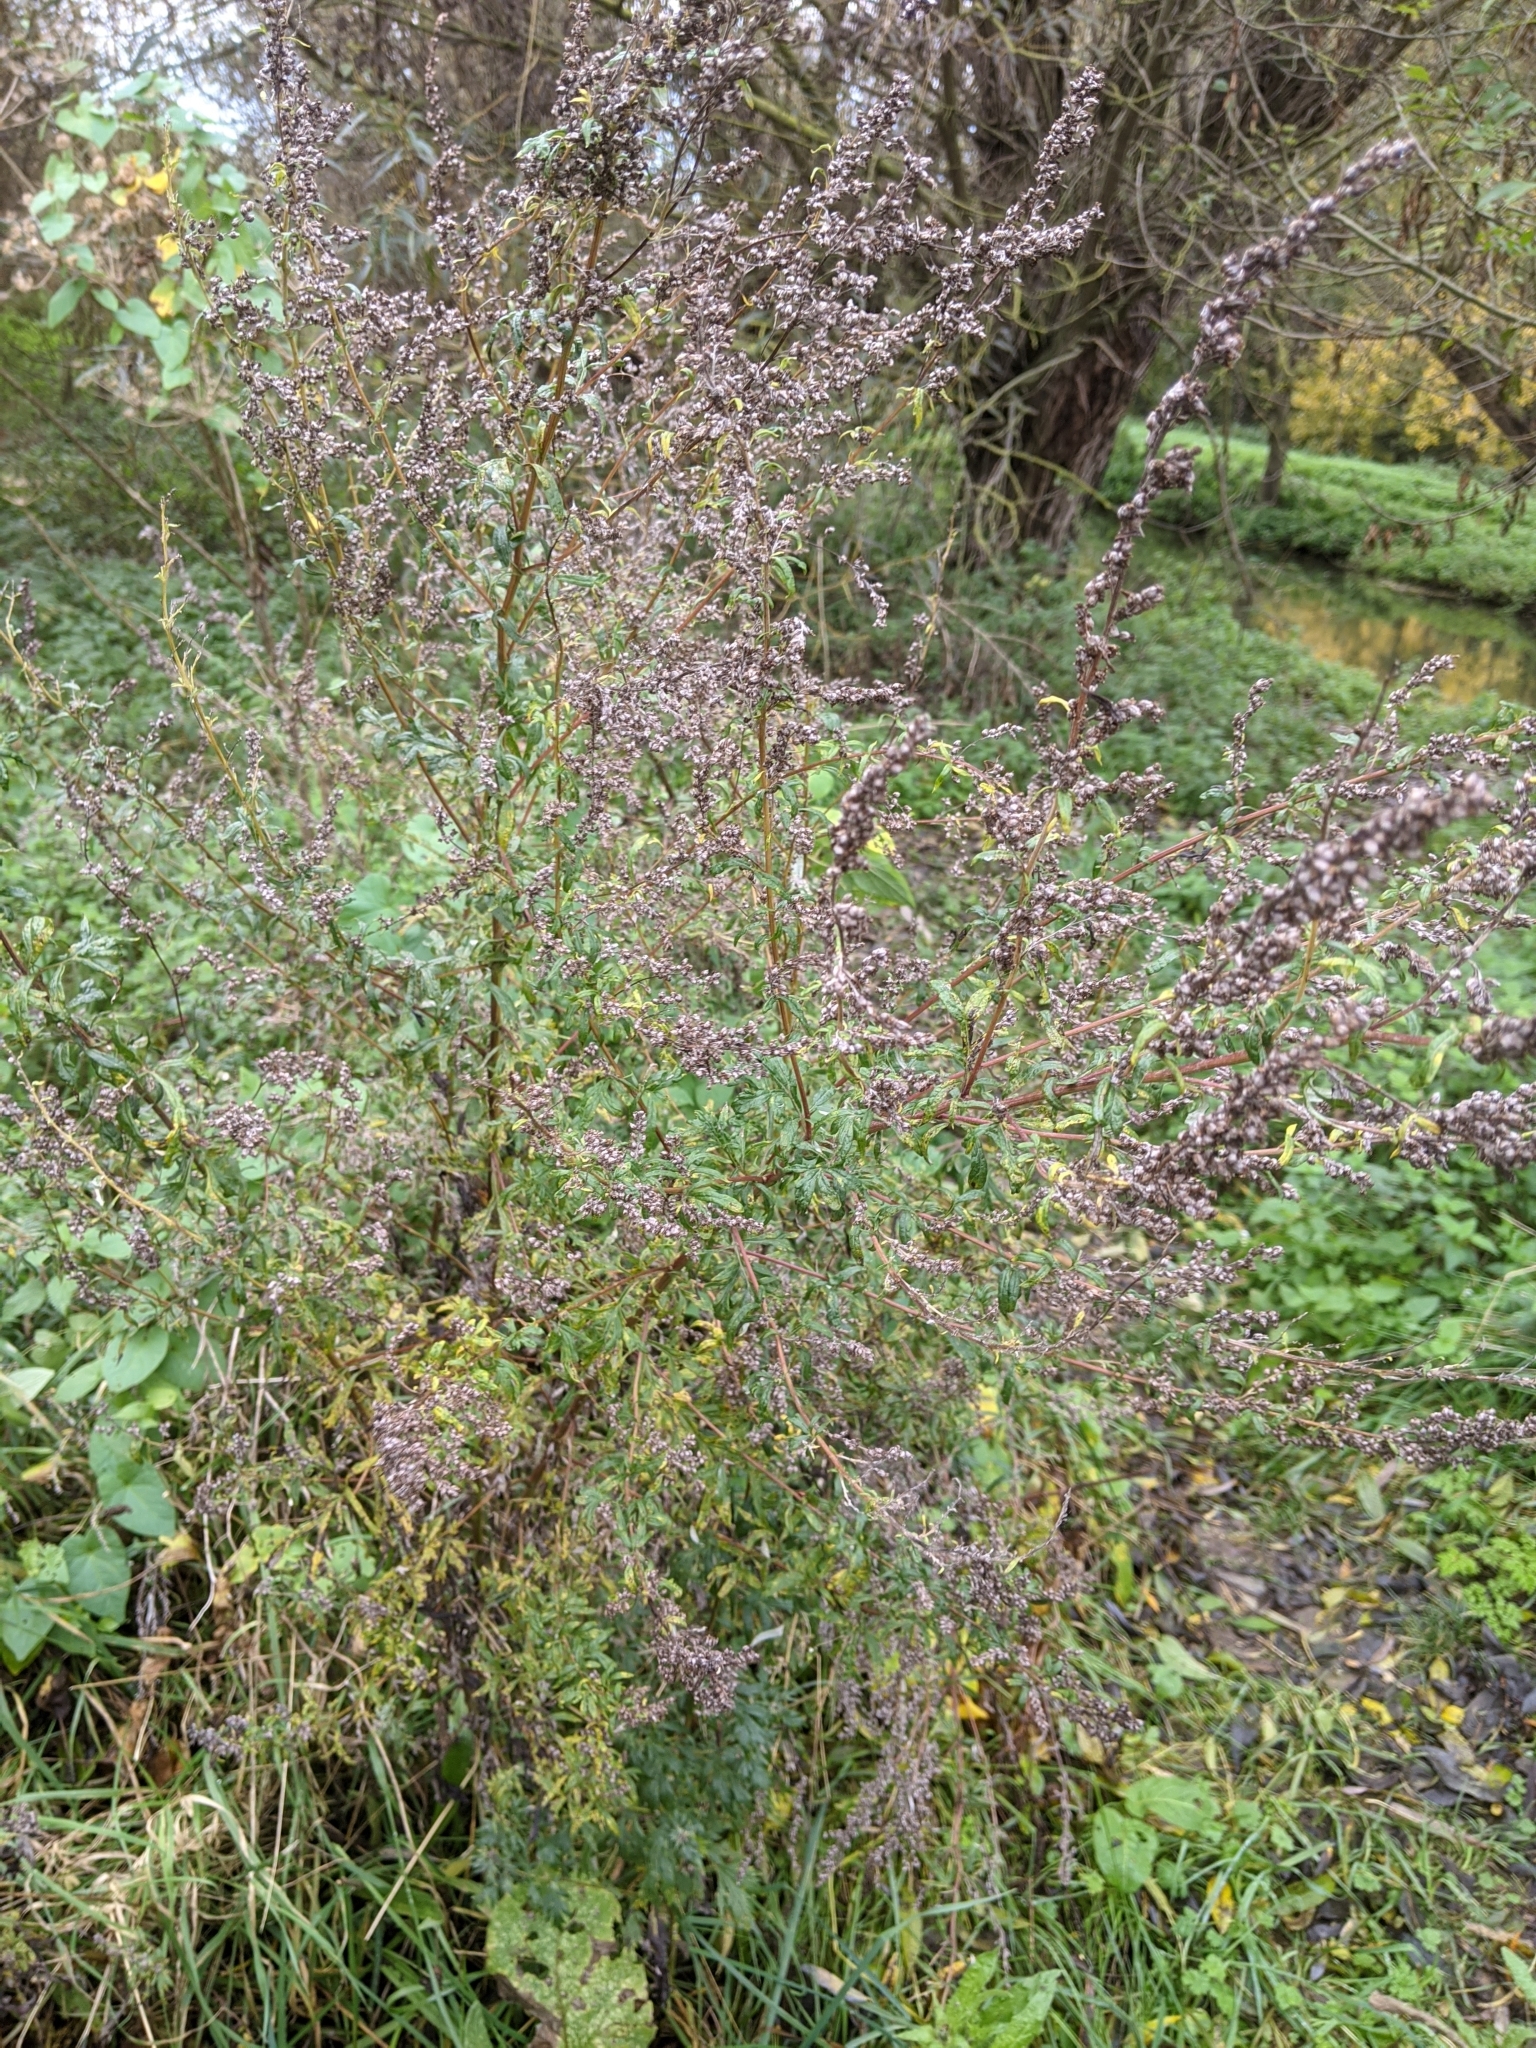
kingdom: Plantae
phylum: Tracheophyta
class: Magnoliopsida
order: Asterales
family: Asteraceae
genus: Artemisia
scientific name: Artemisia vulgaris
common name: Mugwort
